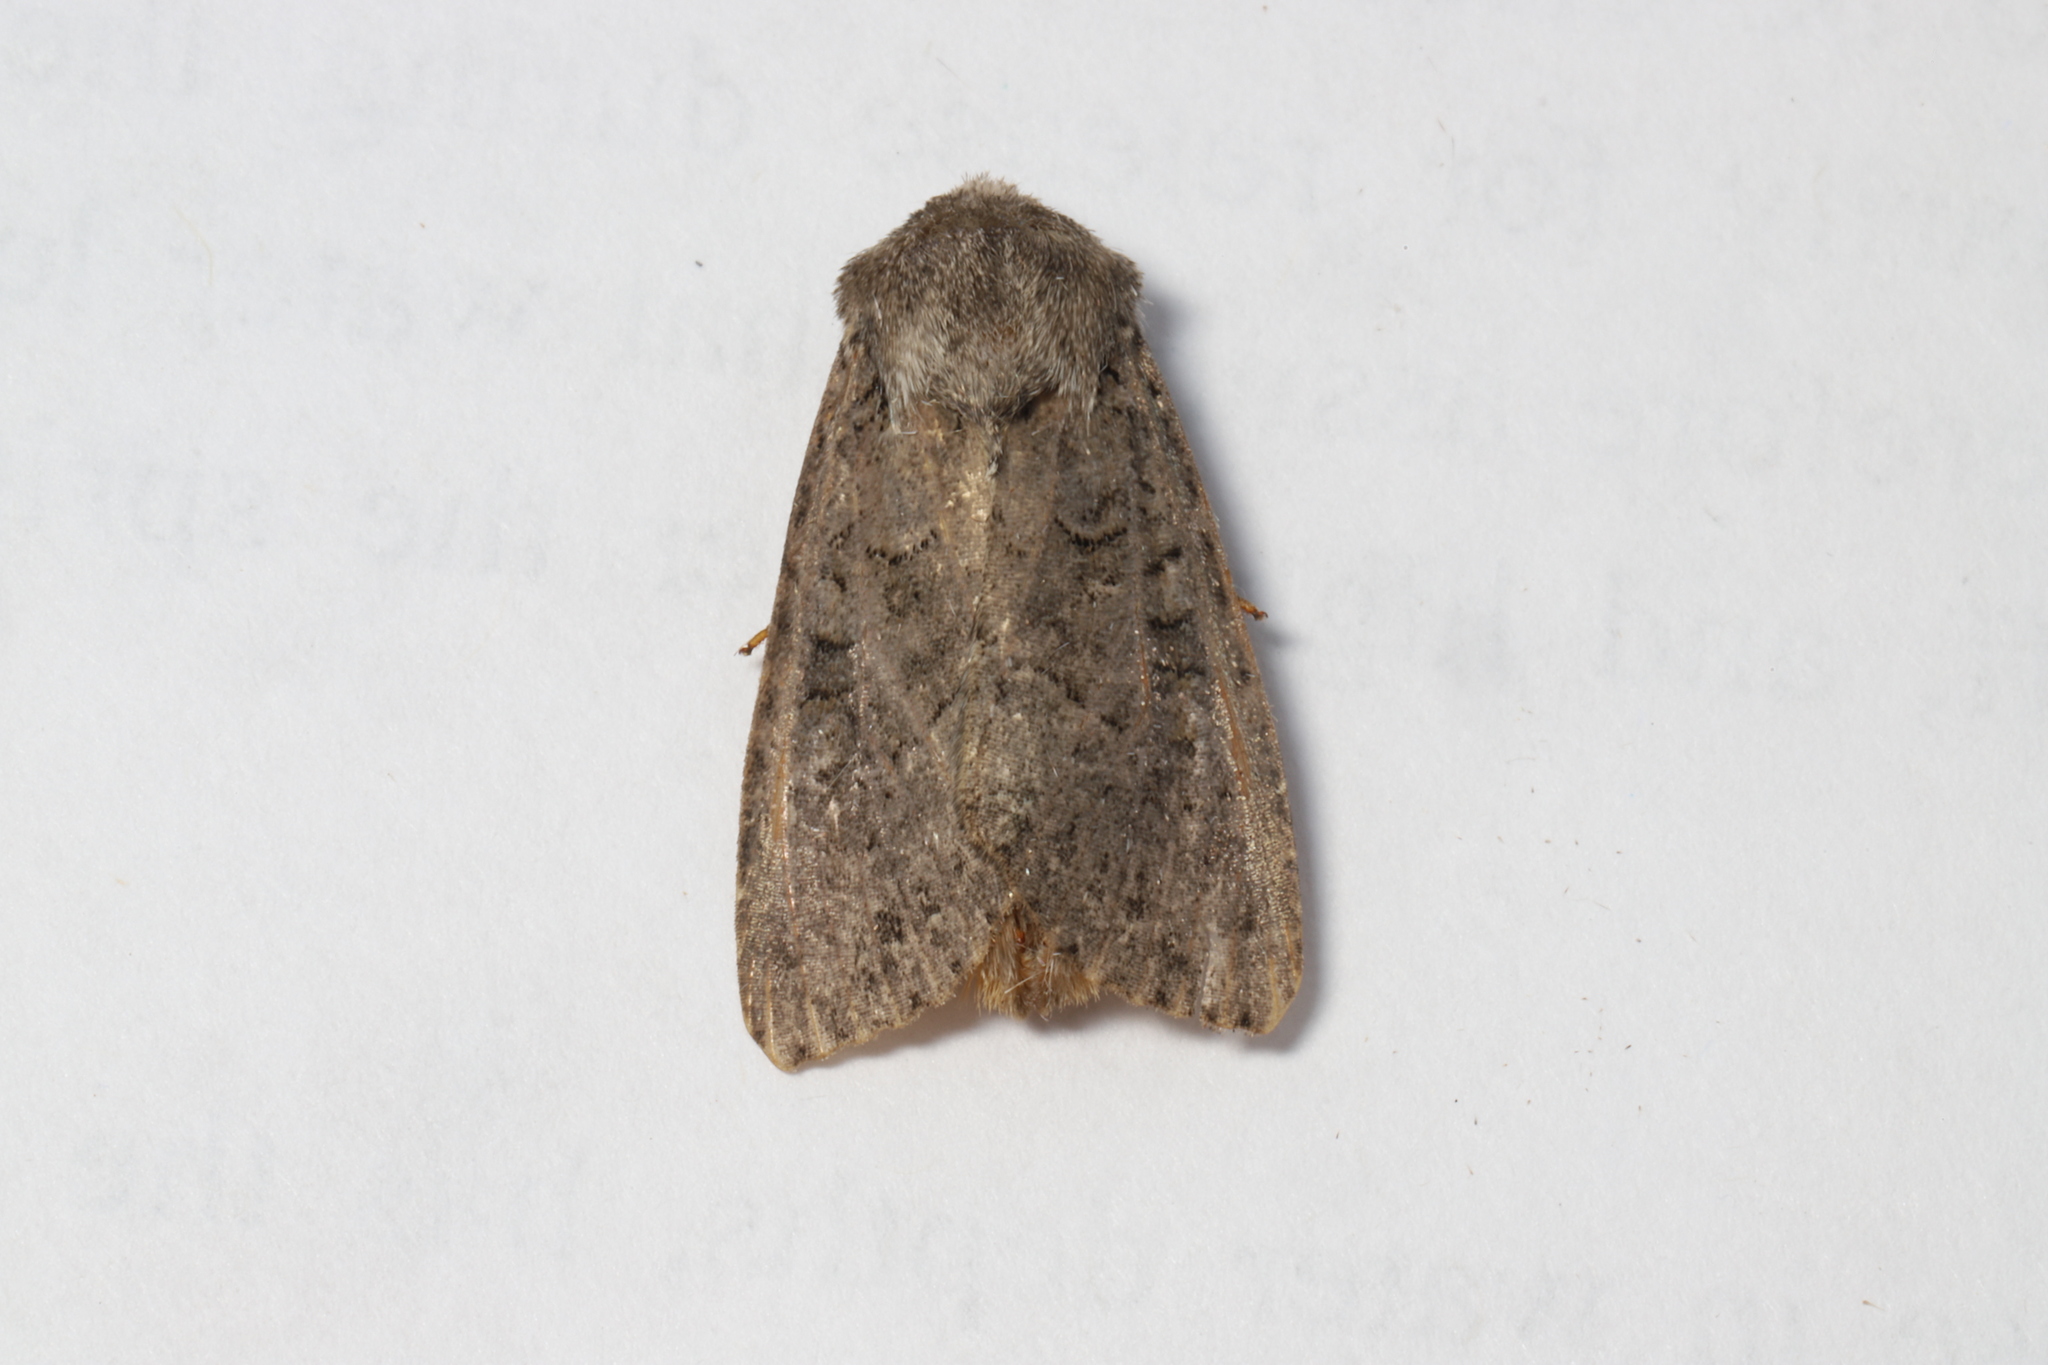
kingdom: Animalia
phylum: Arthropoda
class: Insecta
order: Lepidoptera
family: Noctuidae
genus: Apamea
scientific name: Apamea devastator
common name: Glassy cutworm
